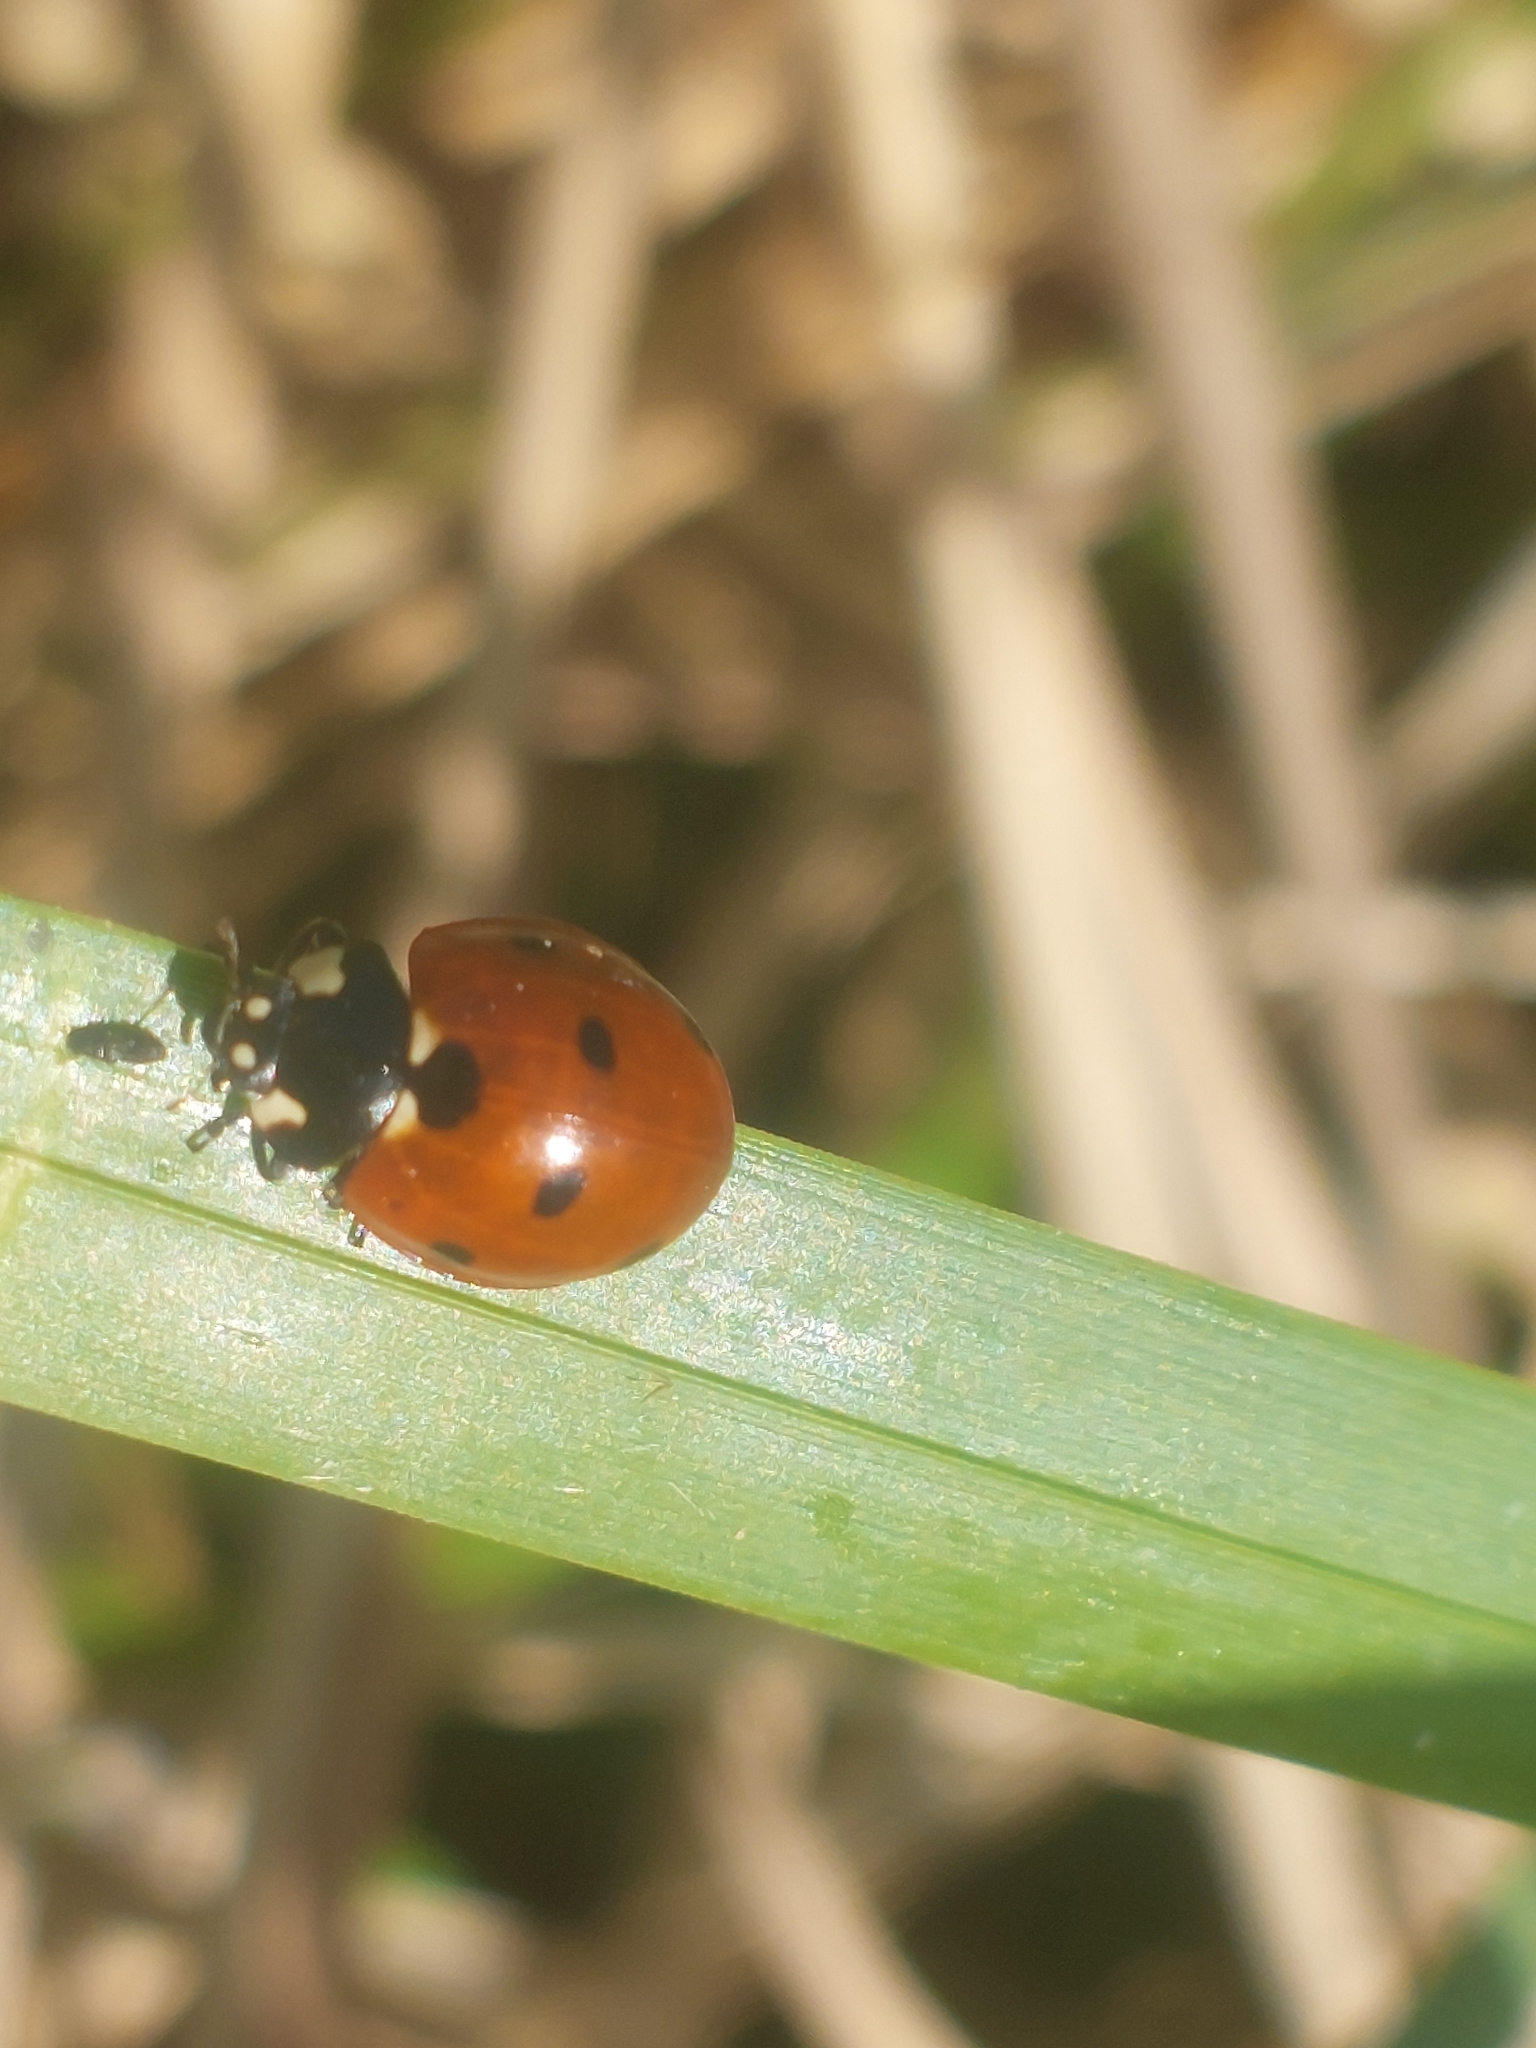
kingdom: Animalia
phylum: Arthropoda
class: Insecta
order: Coleoptera
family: Coccinellidae
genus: Coccinella
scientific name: Coccinella septempunctata
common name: Sevenspotted lady beetle
